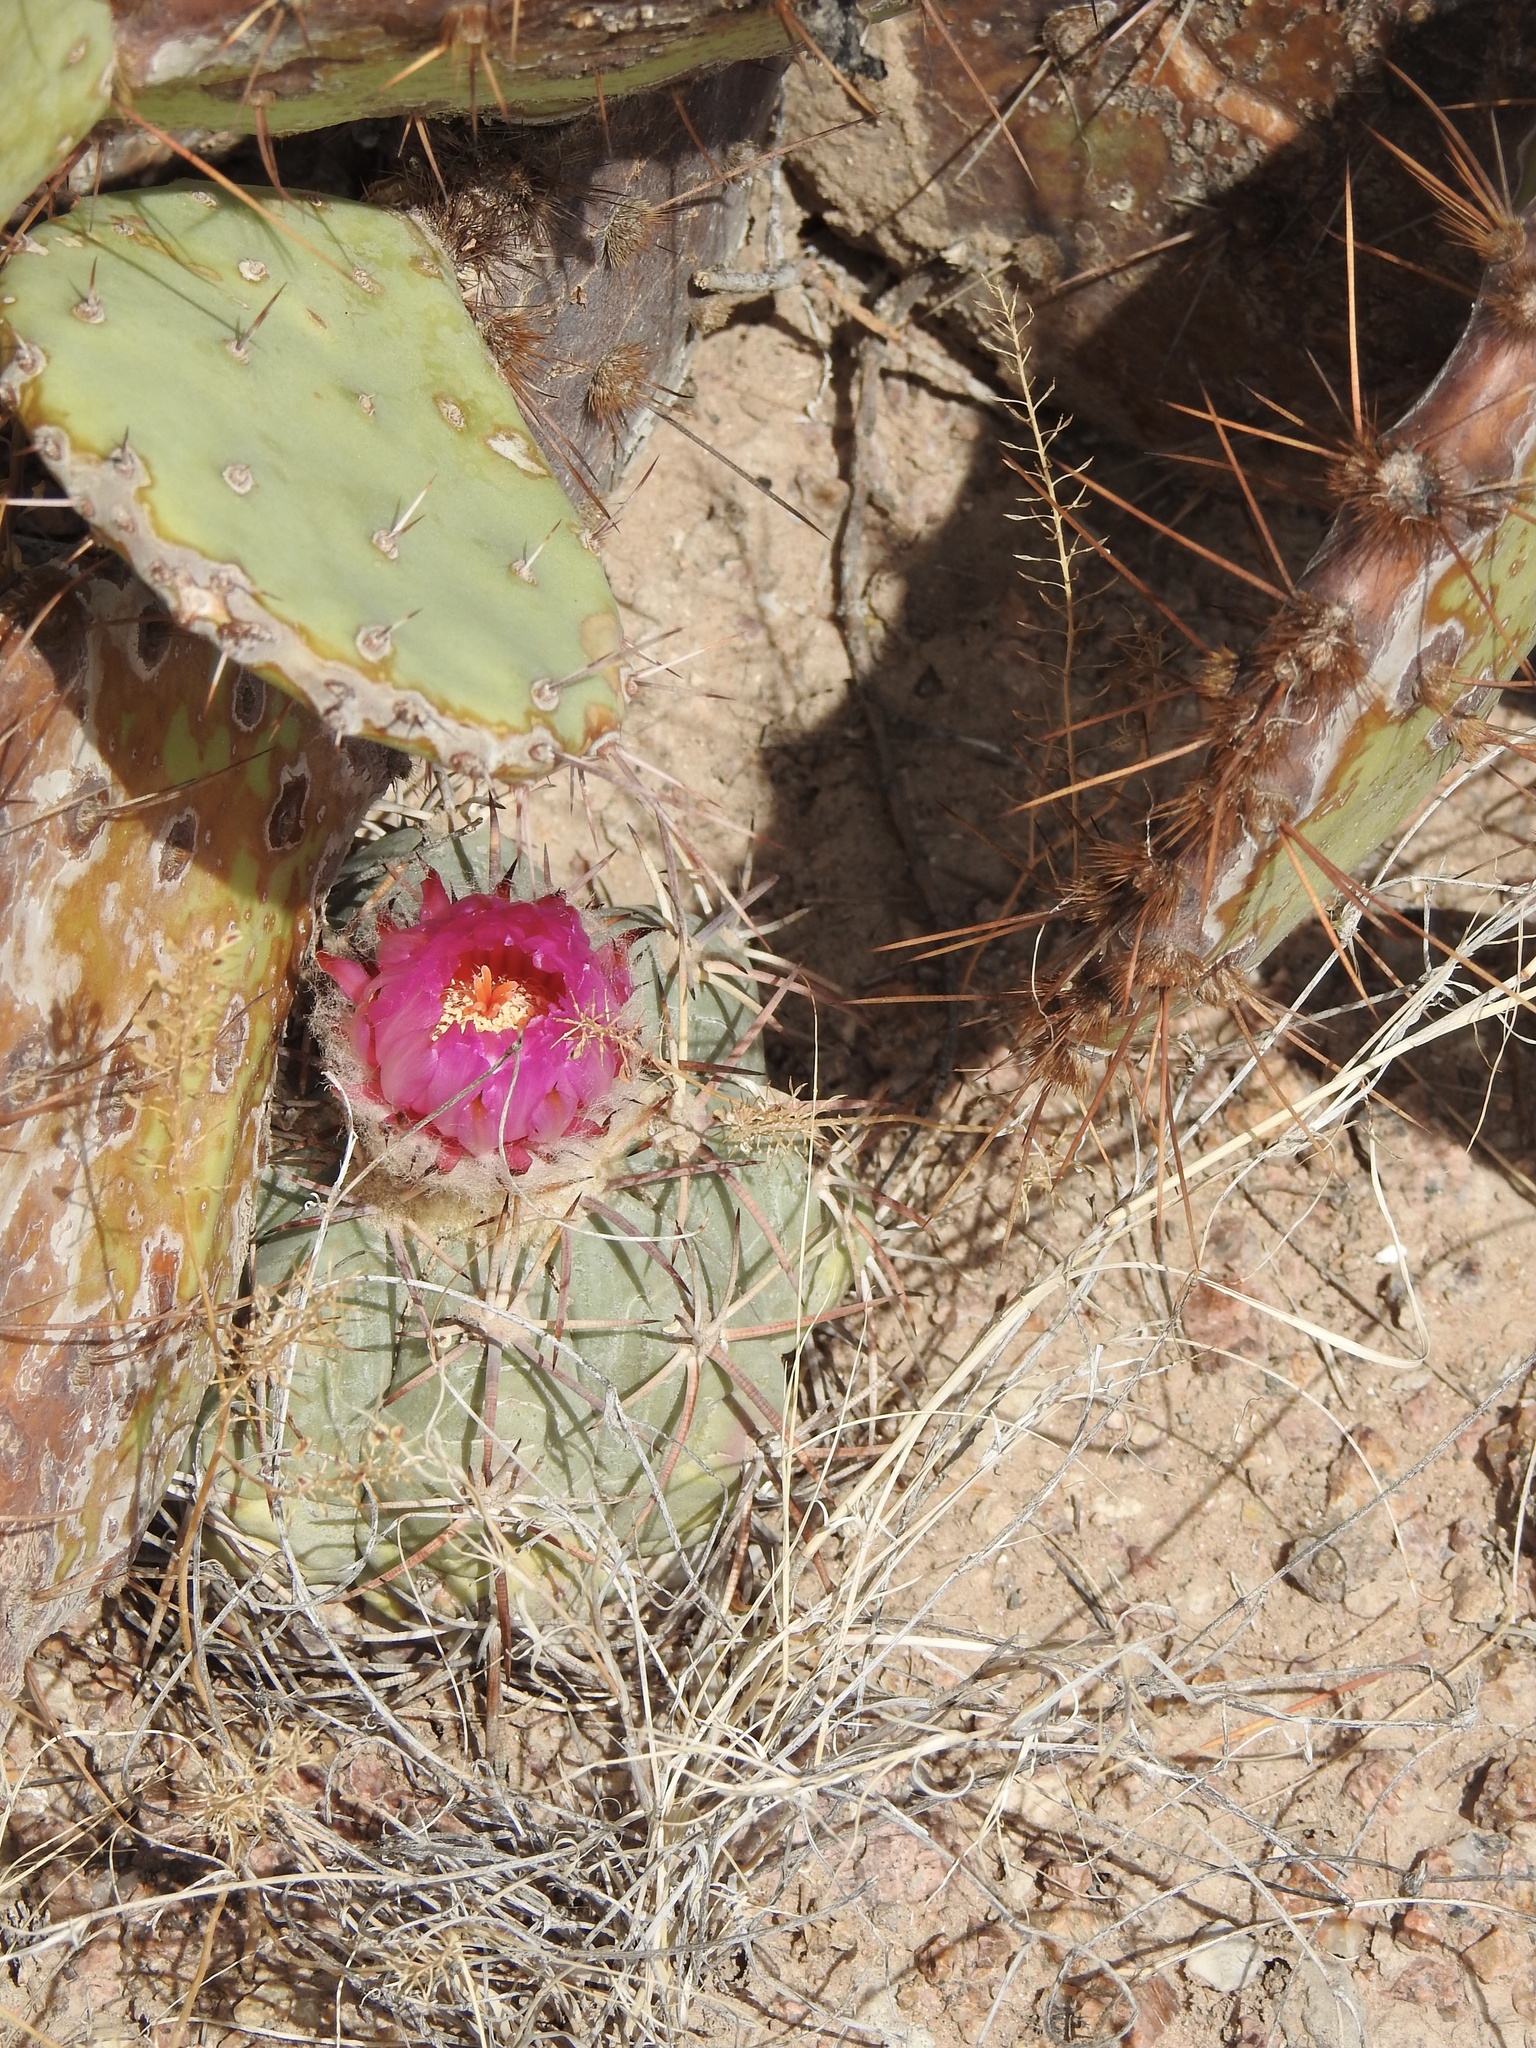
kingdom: Plantae
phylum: Tracheophyta
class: Magnoliopsida
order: Caryophyllales
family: Cactaceae
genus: Echinocactus
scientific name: Echinocactus horizonthalonius
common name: Devilshead
